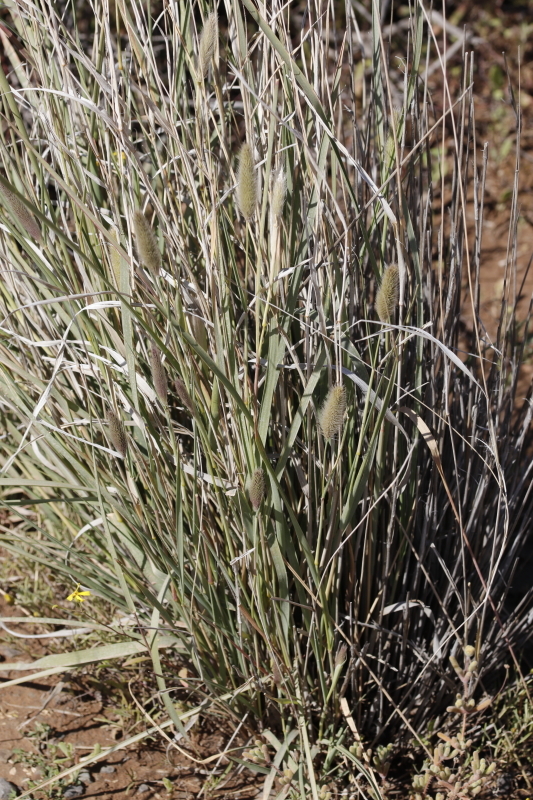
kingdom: Plantae
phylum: Tracheophyta
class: Liliopsida
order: Poales
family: Poaceae
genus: Fingerhuthia
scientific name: Fingerhuthia africana
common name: Zulu fescue
